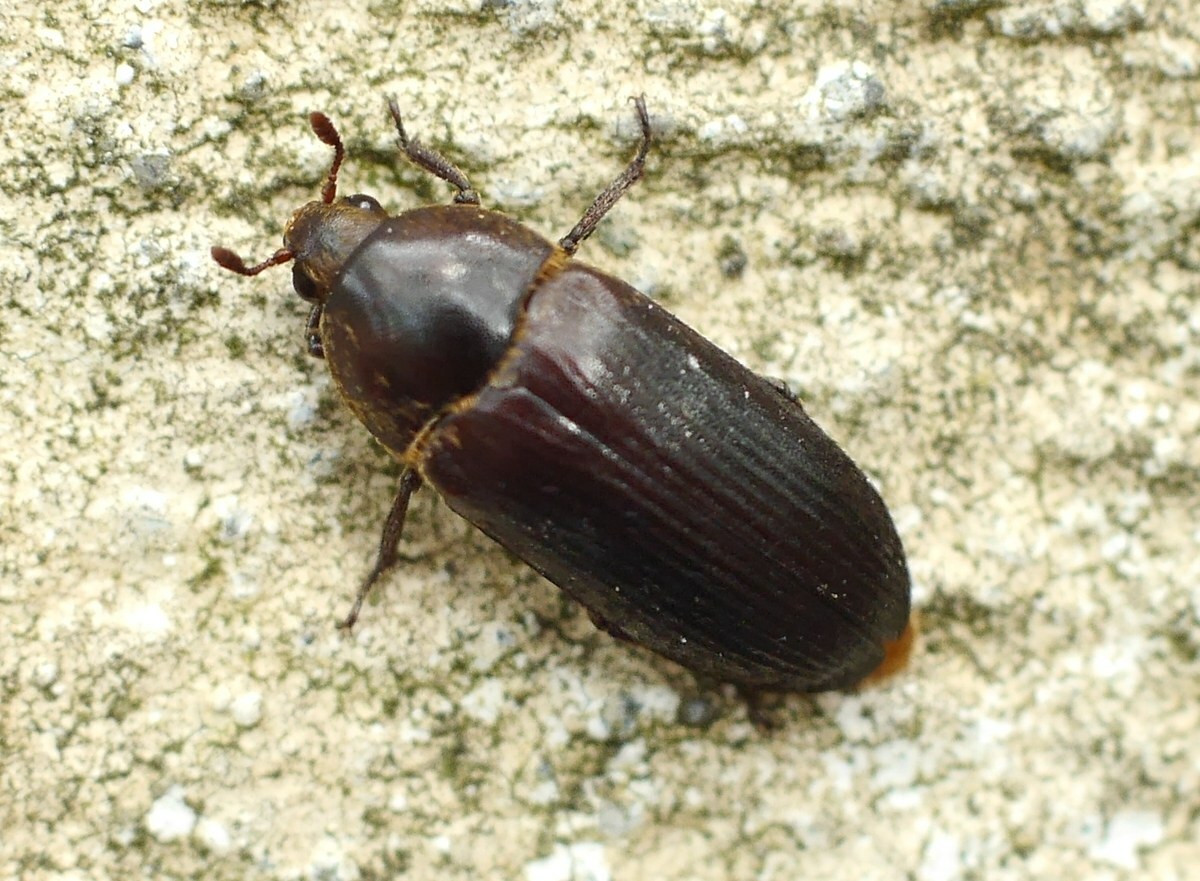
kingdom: Animalia
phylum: Arthropoda
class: Insecta
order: Coleoptera
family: Dermestidae
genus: Dermestes
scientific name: Dermestes bicolor
